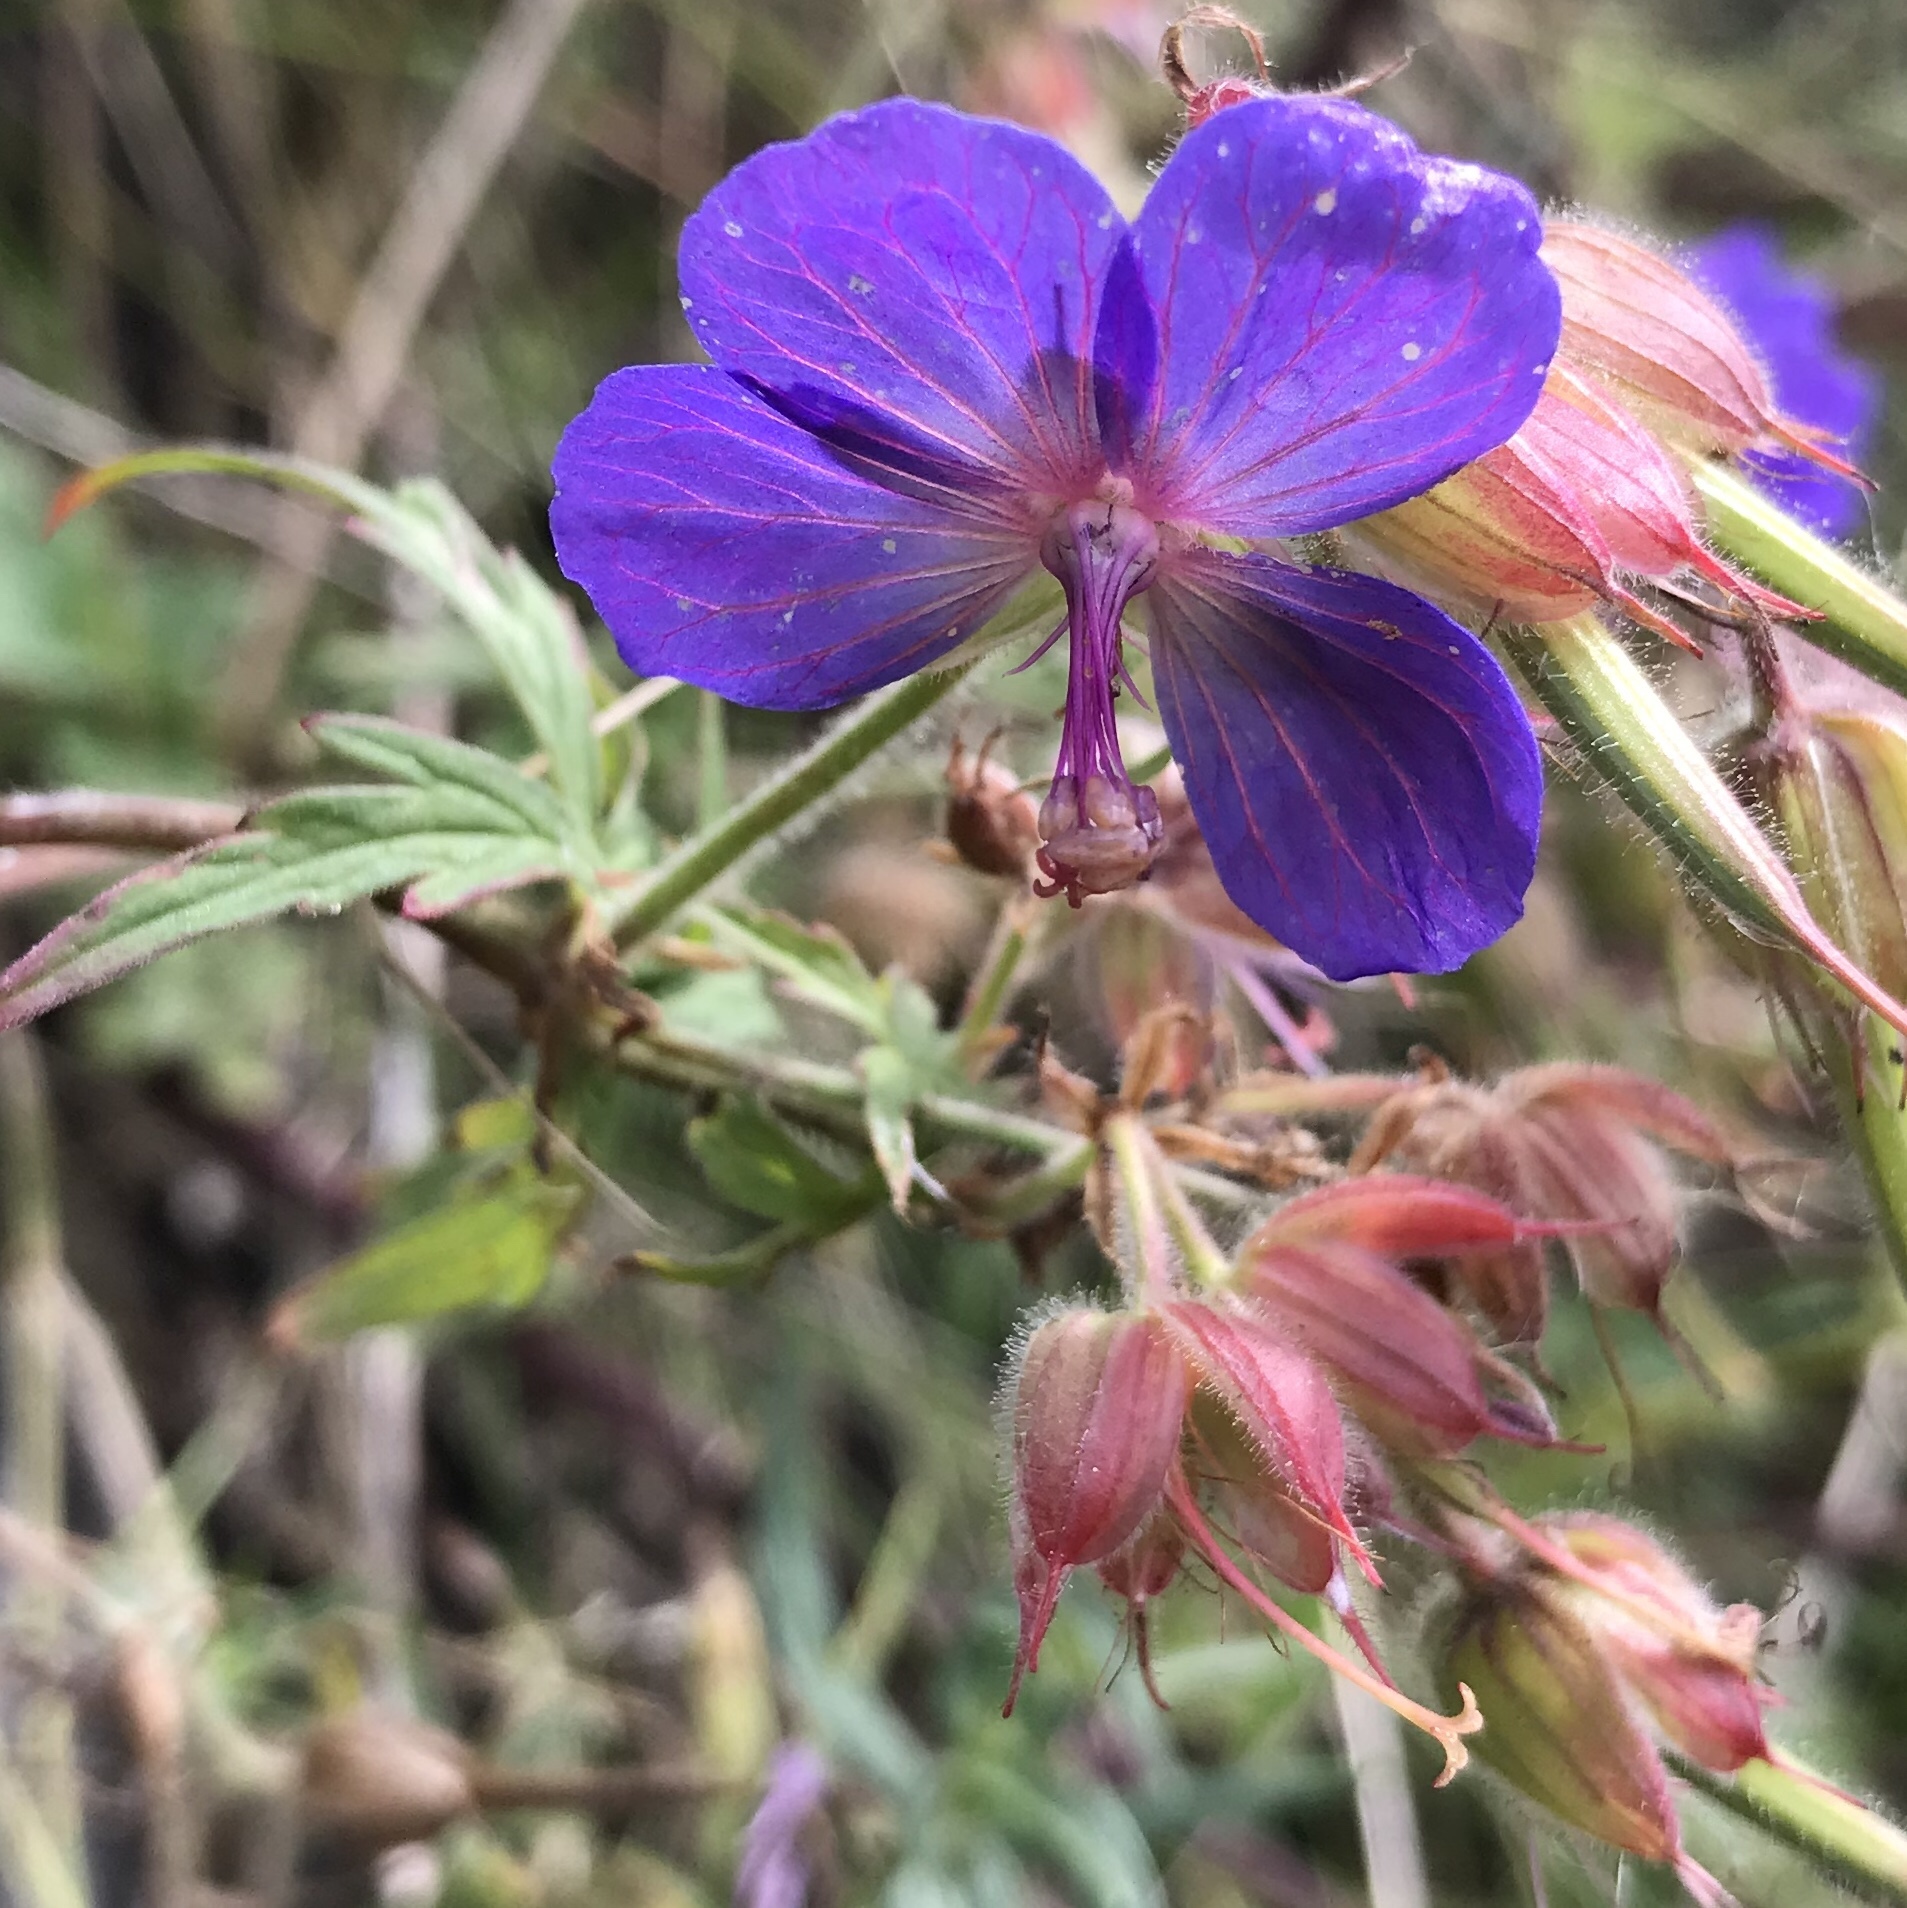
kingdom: Plantae
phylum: Tracheophyta
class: Magnoliopsida
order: Geraniales
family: Geraniaceae
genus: Geranium
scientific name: Geranium pratense
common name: Meadow crane's-bill
